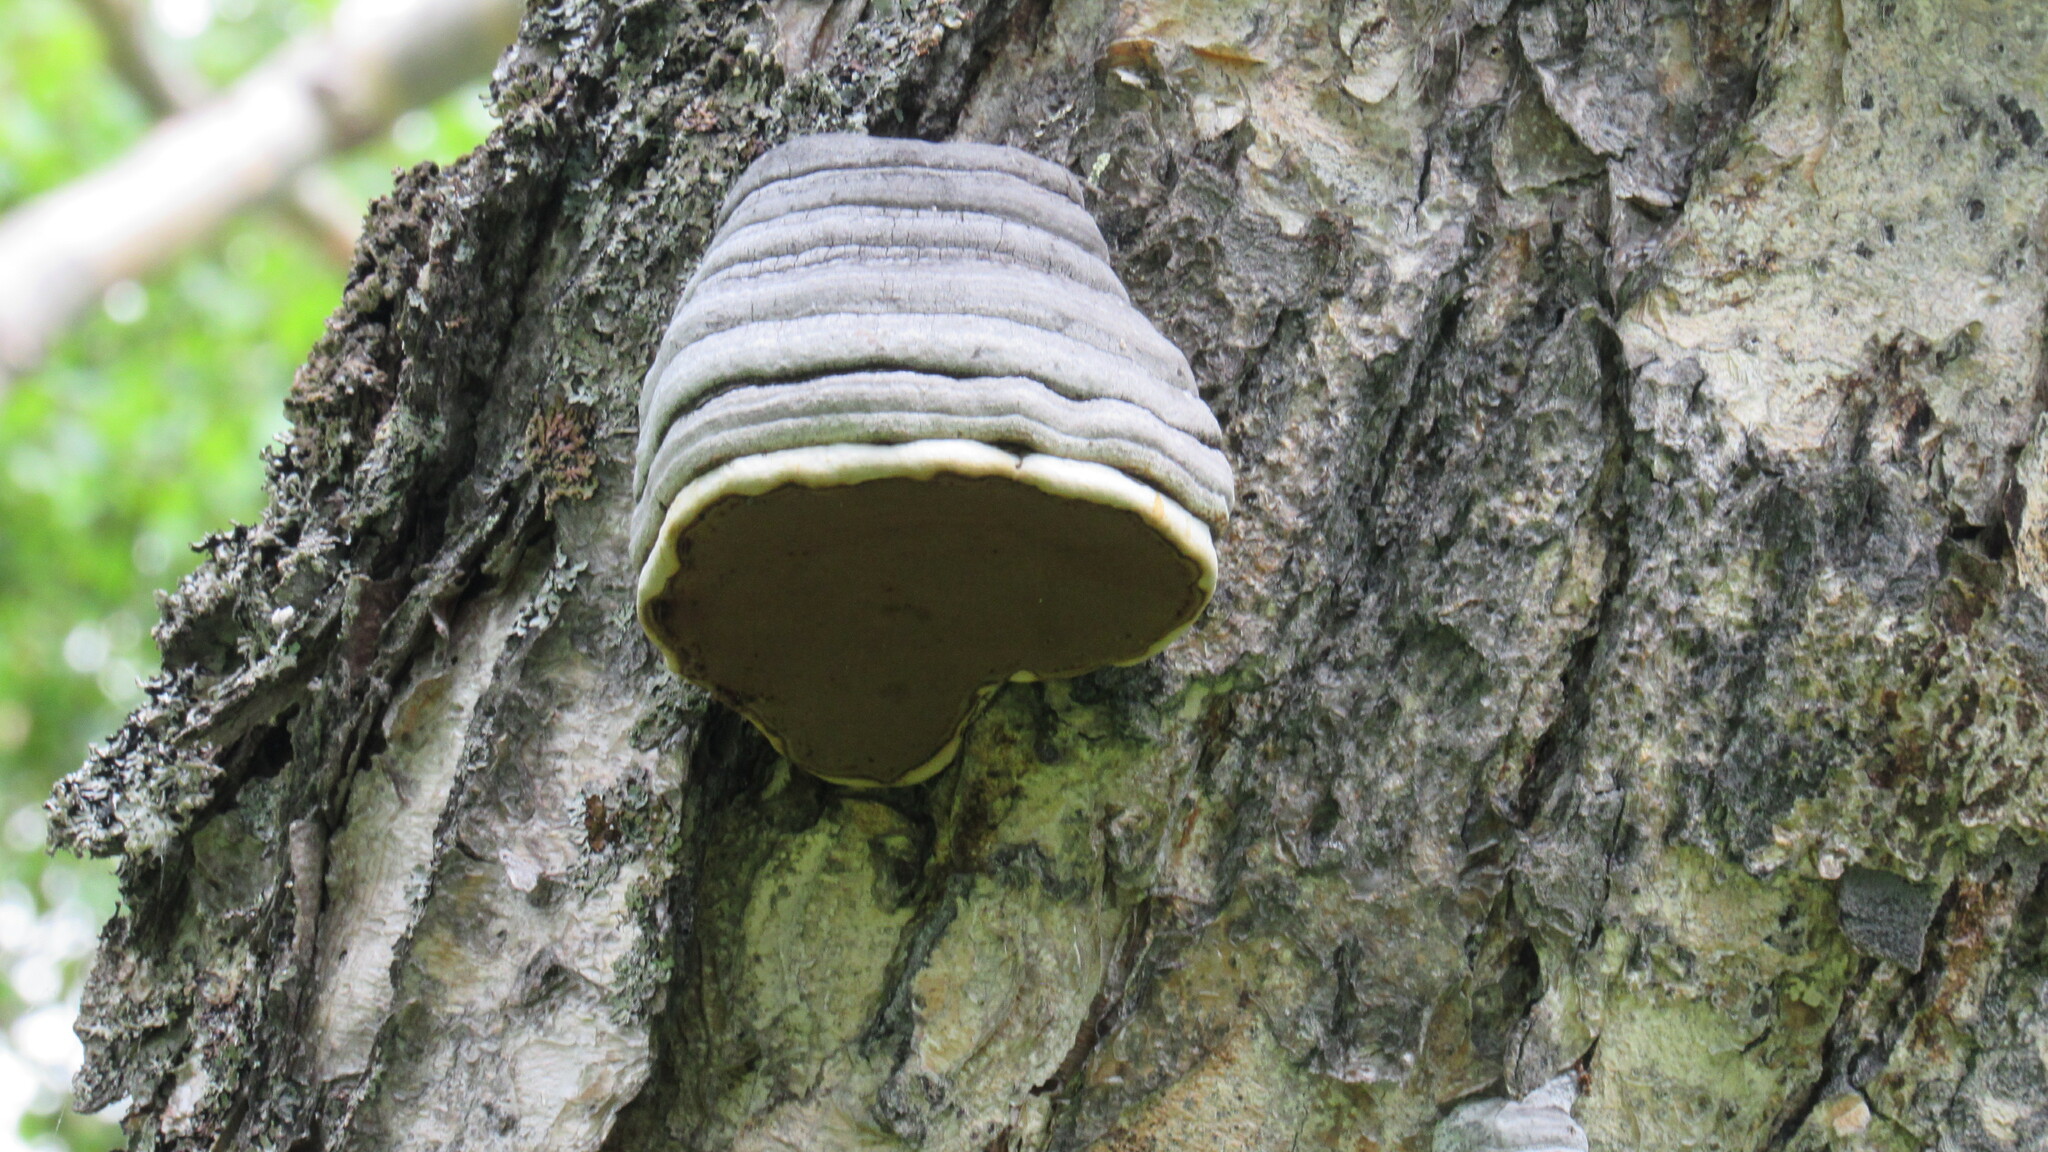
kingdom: Fungi
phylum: Basidiomycota
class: Agaricomycetes
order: Polyporales
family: Polyporaceae
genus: Fomes
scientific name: Fomes fomentarius
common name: Hoof fungus
